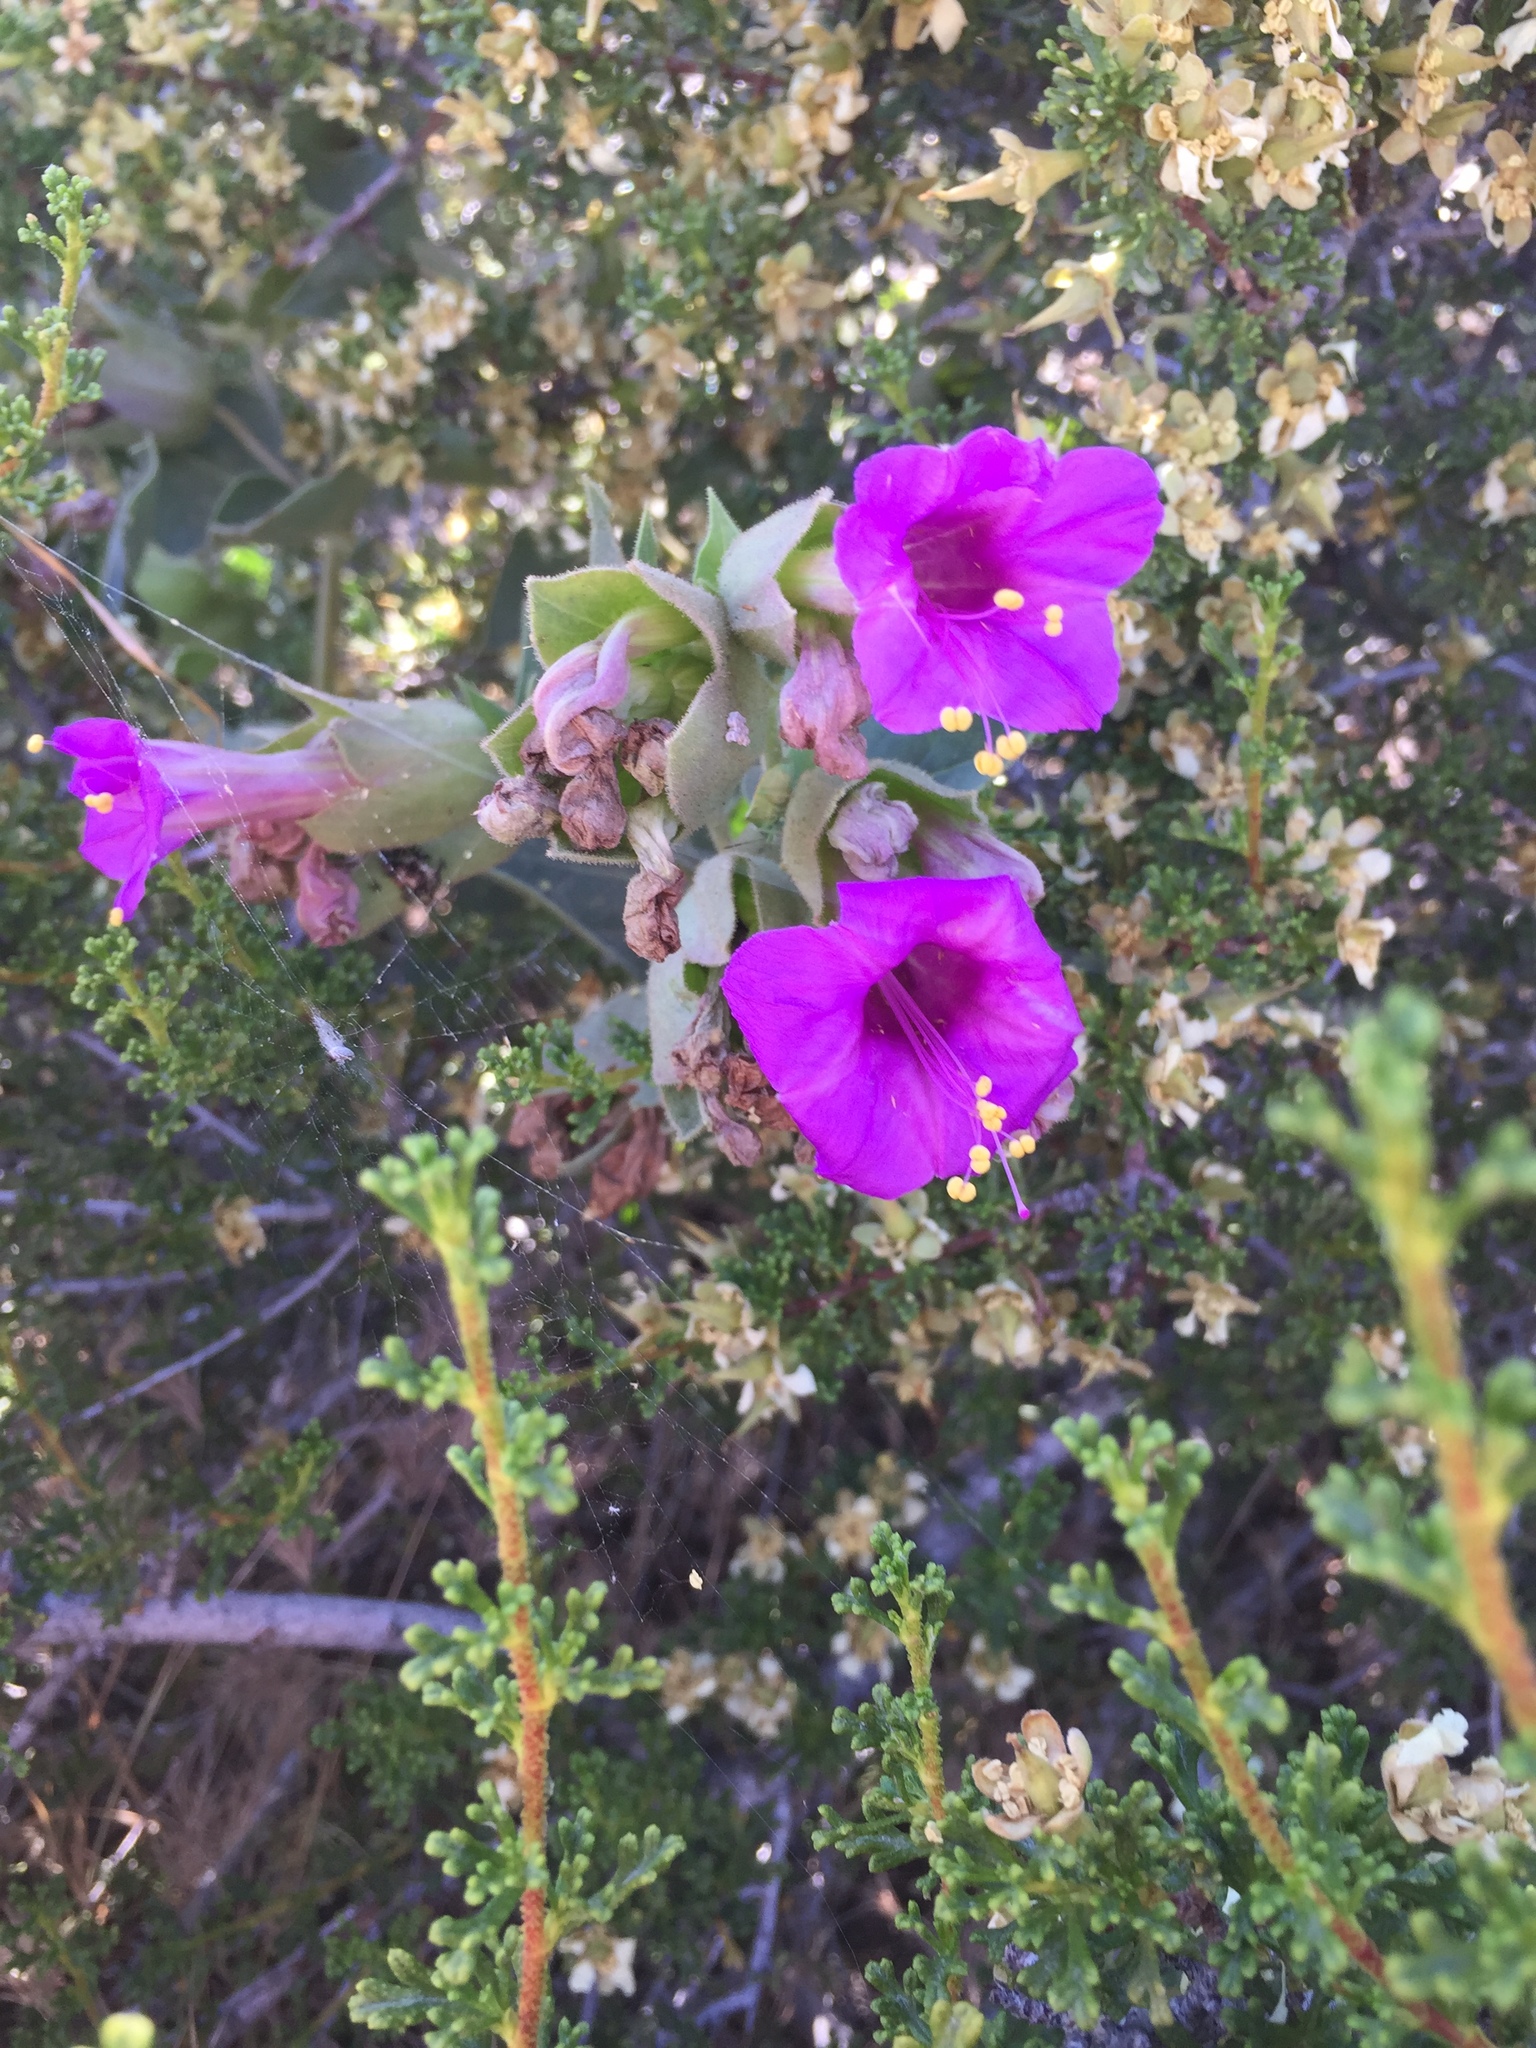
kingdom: Plantae
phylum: Tracheophyta
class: Magnoliopsida
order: Caryophyllales
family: Nyctaginaceae
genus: Mirabilis
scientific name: Mirabilis laevis
